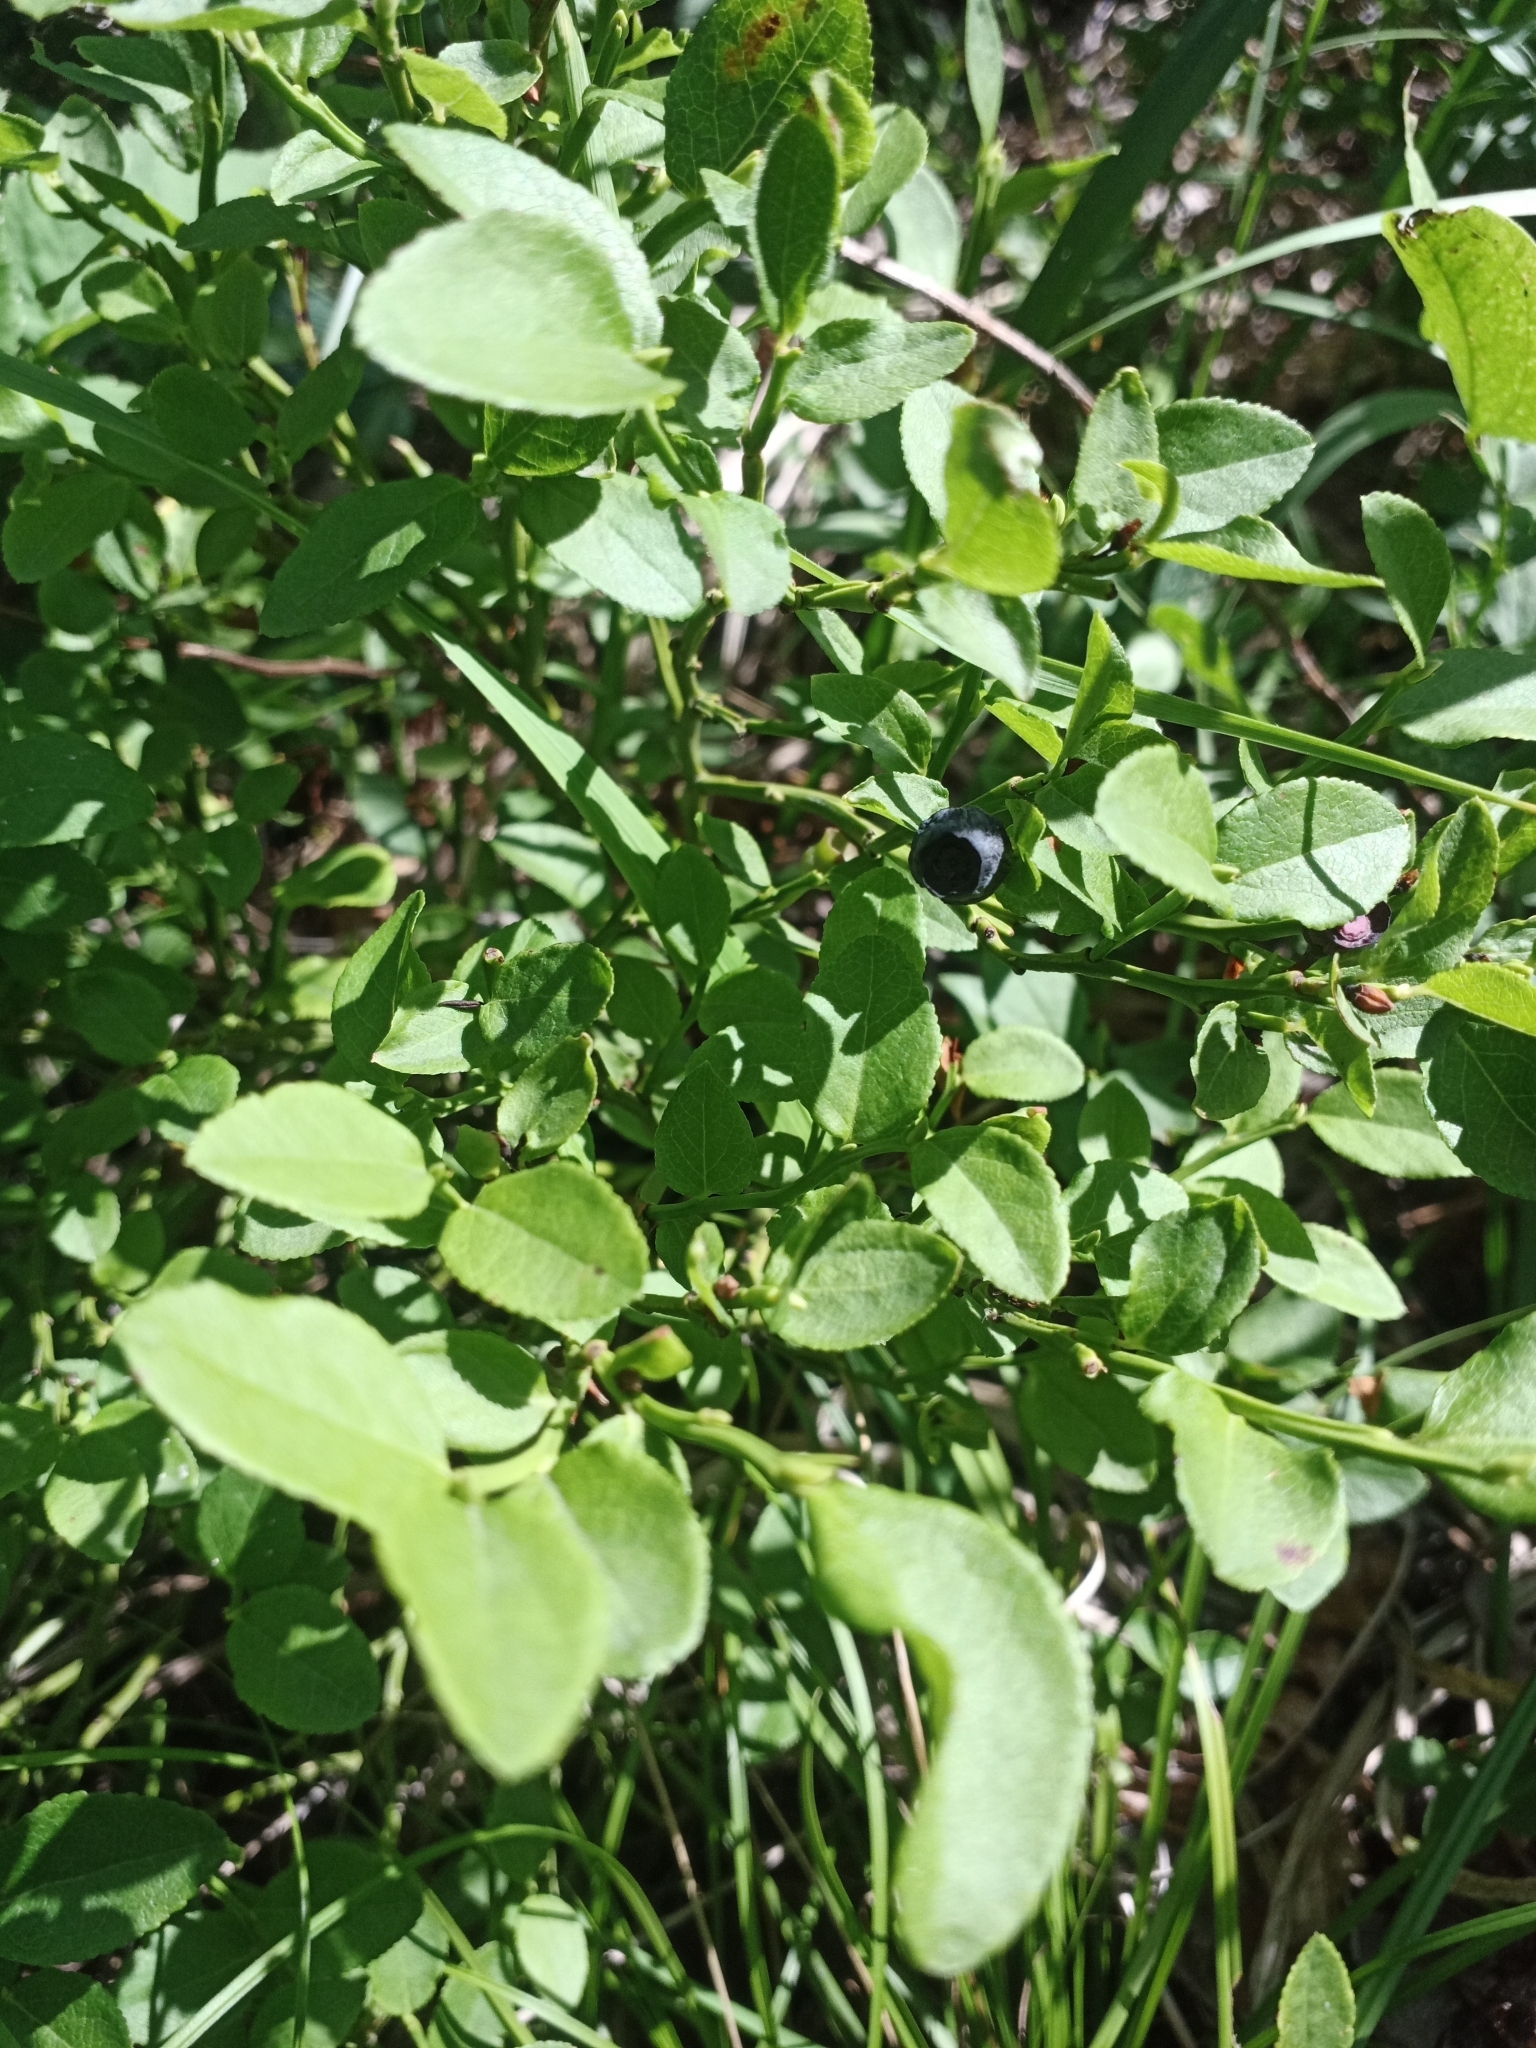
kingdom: Plantae
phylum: Tracheophyta
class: Magnoliopsida
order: Ericales
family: Ericaceae
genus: Vaccinium
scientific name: Vaccinium myrtillus
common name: Bilberry
